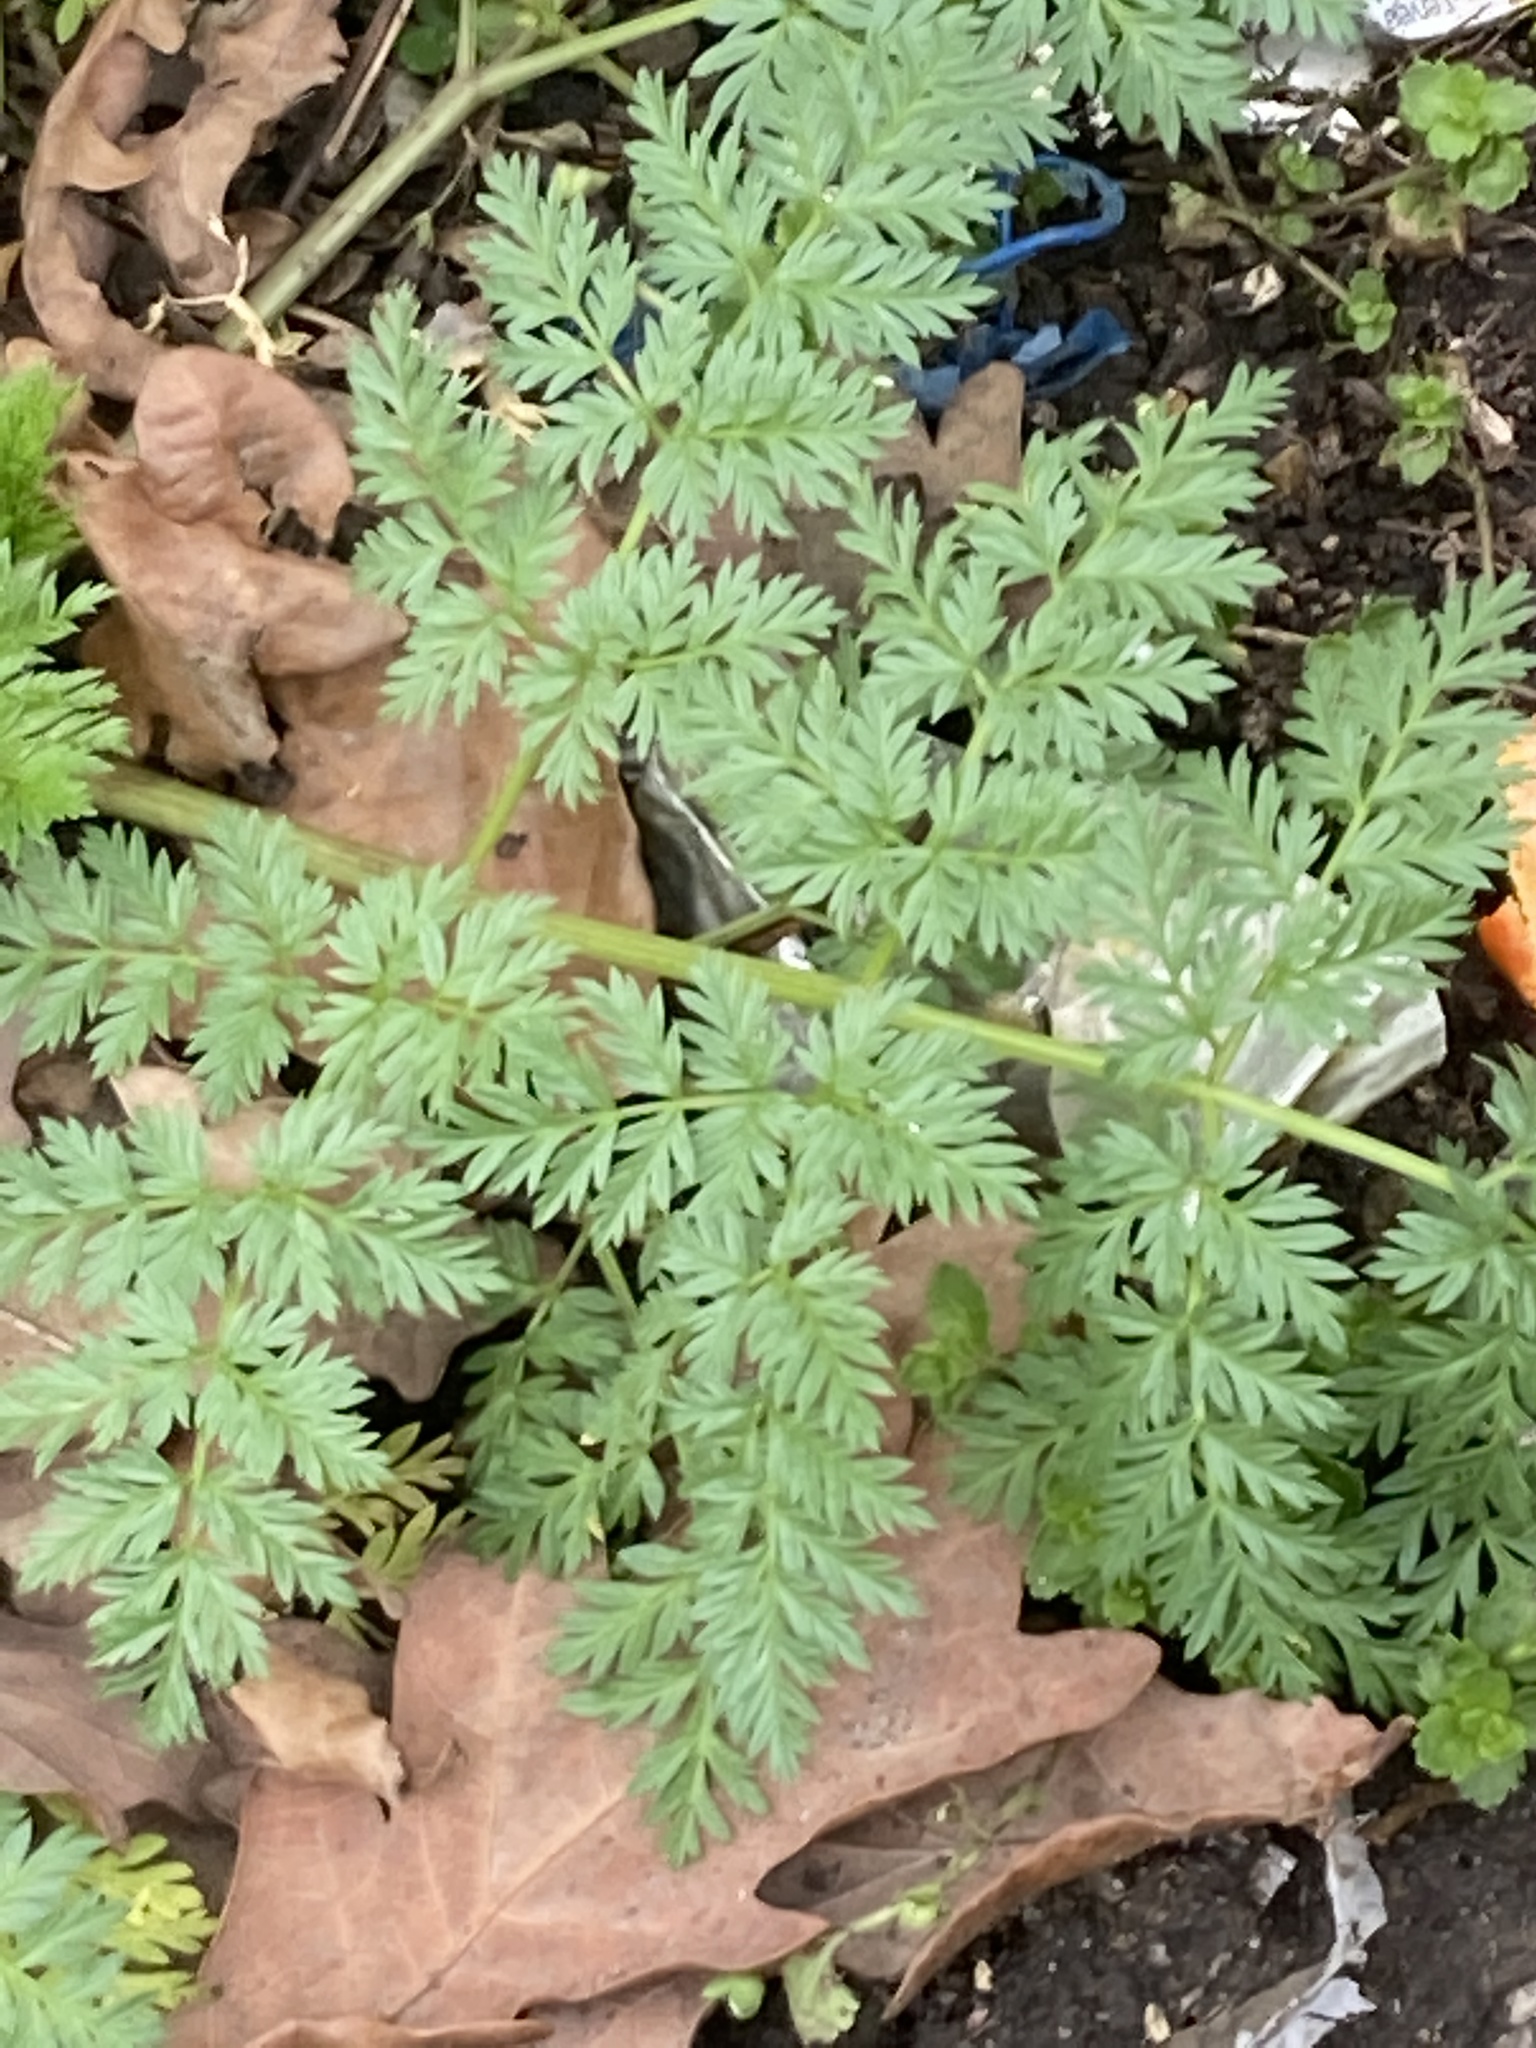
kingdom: Plantae
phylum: Tracheophyta
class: Magnoliopsida
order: Apiales
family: Apiaceae
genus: Conium
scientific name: Conium maculatum
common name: Hemlock
